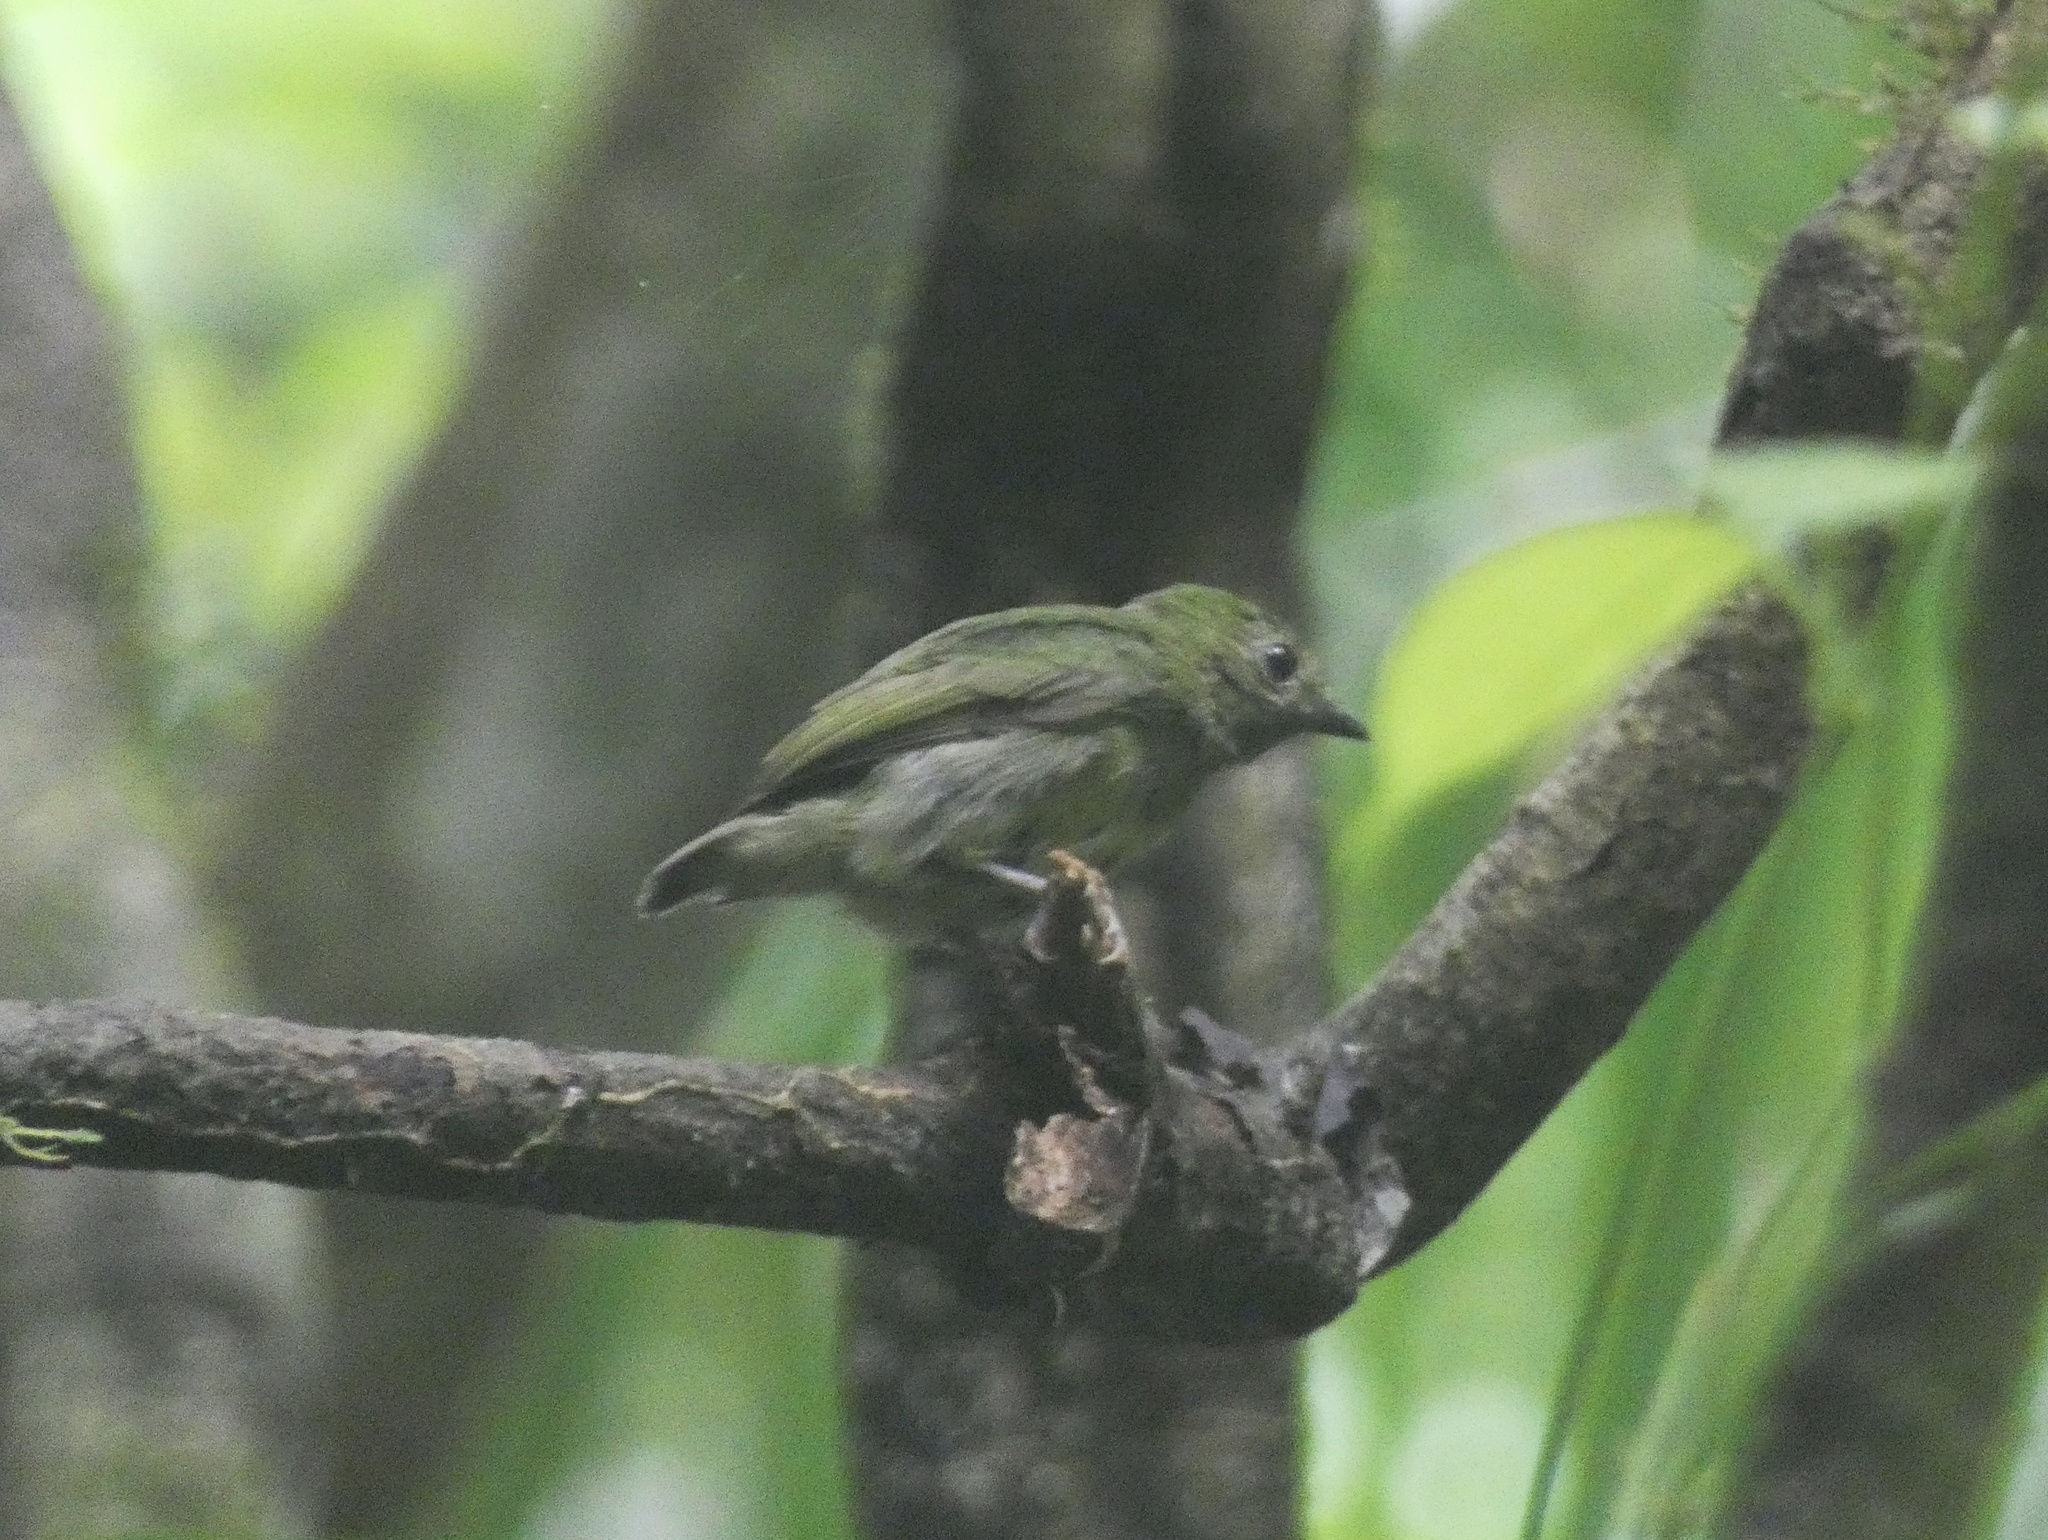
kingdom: Animalia
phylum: Chordata
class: Aves
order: Passeriformes
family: Pipridae
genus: Pipra
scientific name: Pipra mentalis
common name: Red-capped manakin
